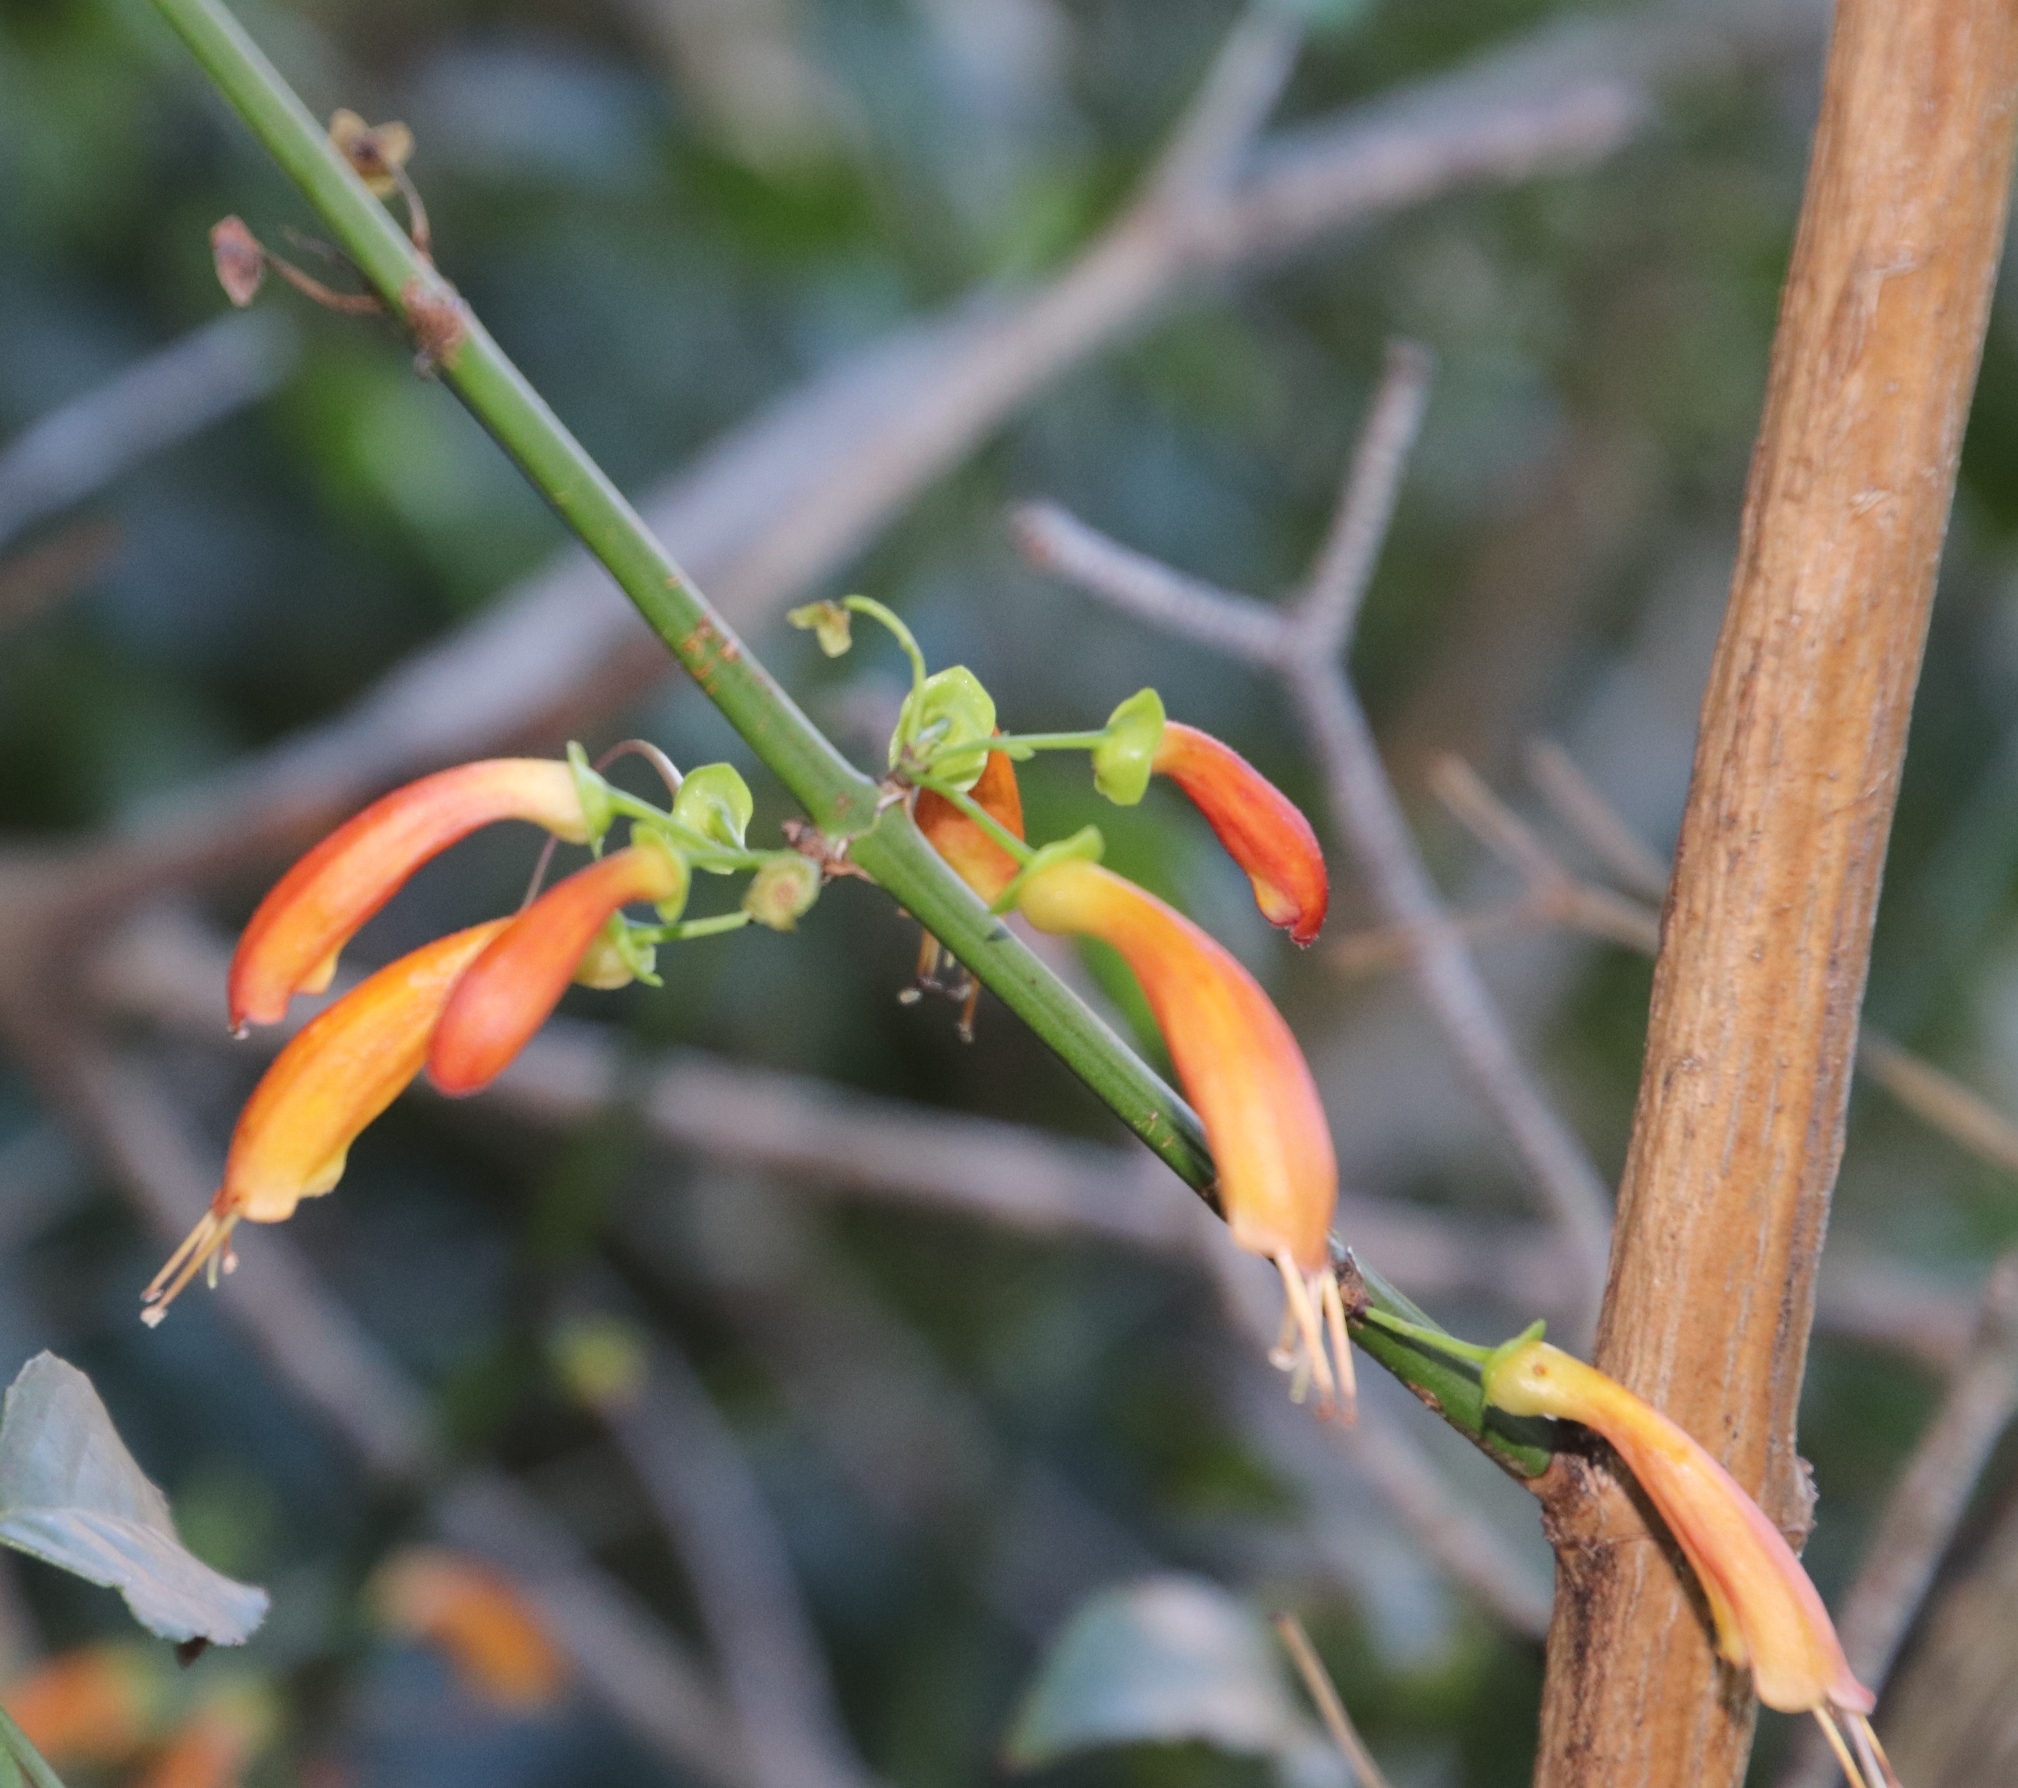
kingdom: Plantae
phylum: Tracheophyta
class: Magnoliopsida
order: Lamiales
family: Stilbaceae
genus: Halleria
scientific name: Halleria lucida
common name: Tree fuschia
